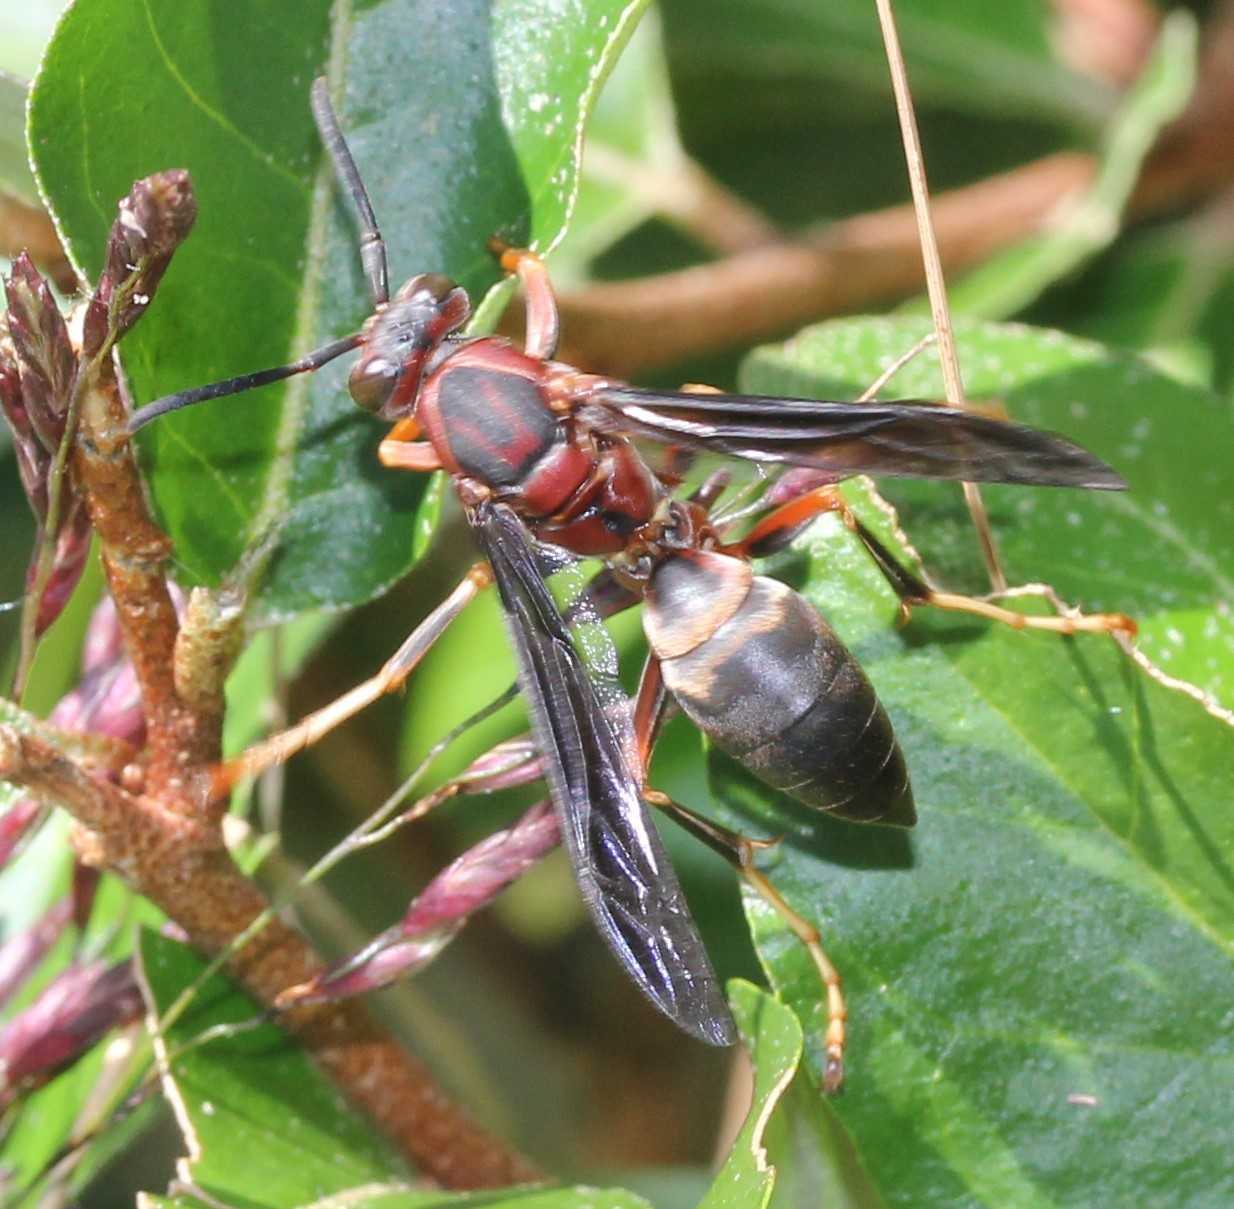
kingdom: Animalia
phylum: Arthropoda
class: Insecta
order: Hymenoptera
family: Eumenidae
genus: Polistes
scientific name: Polistes metricus
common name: Metric paper wasp
